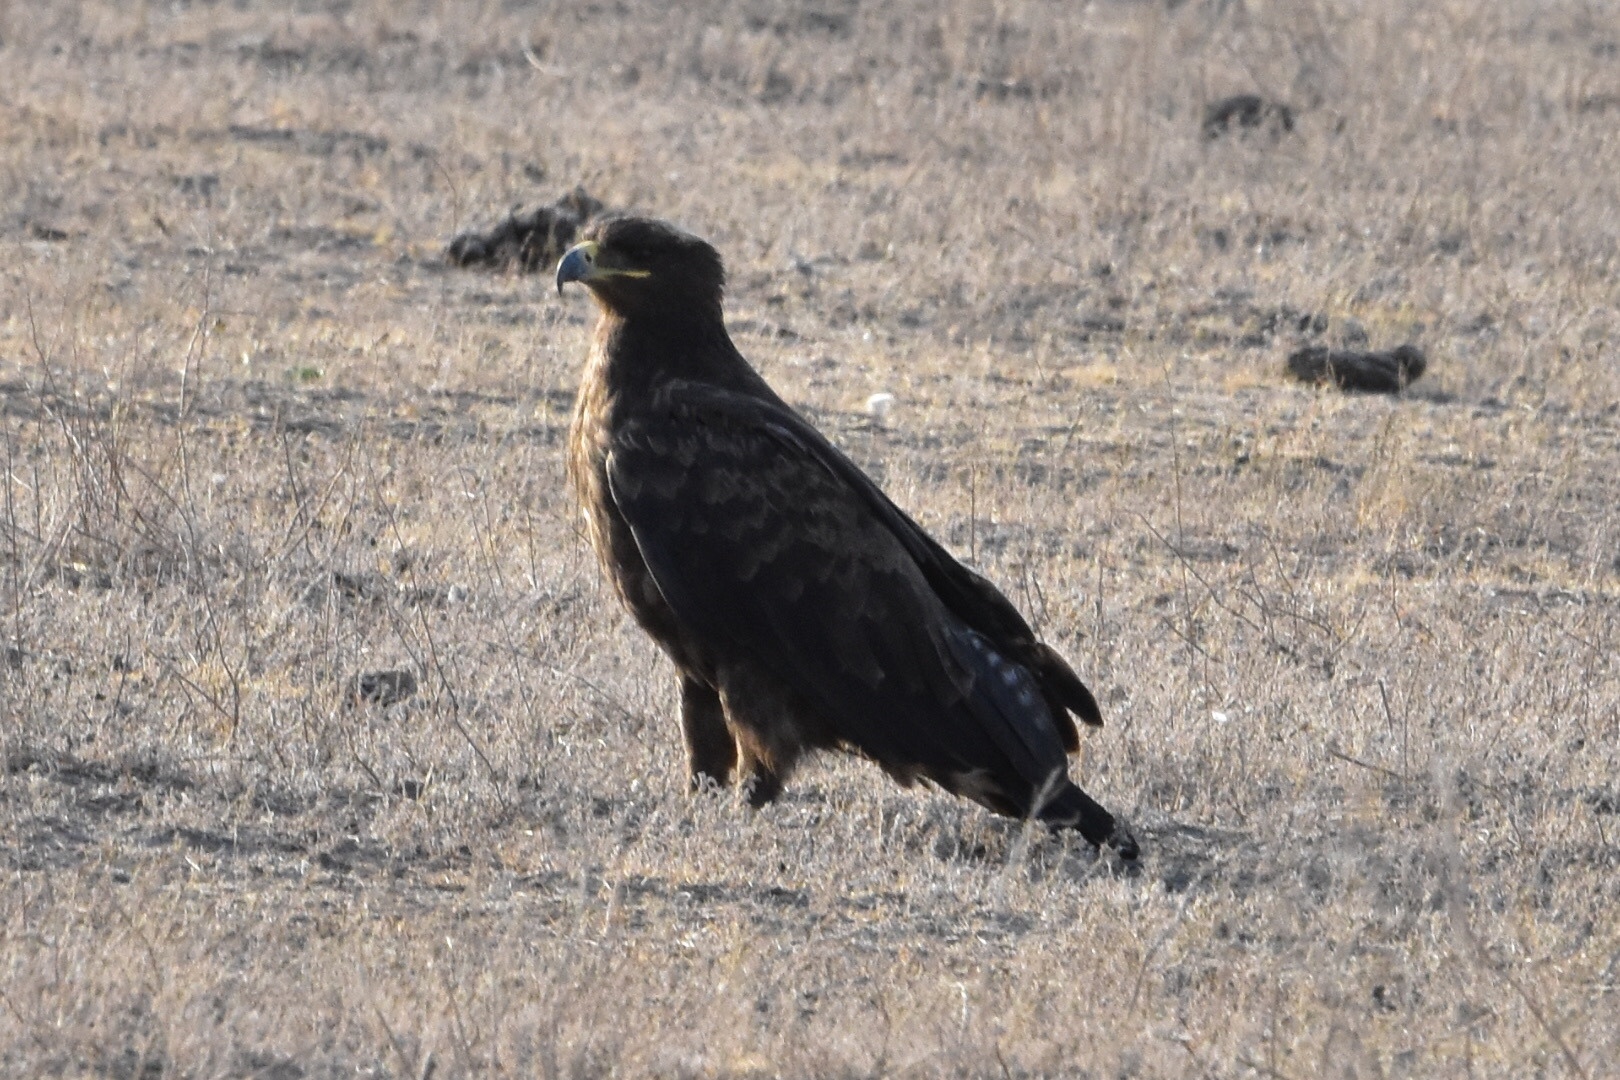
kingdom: Animalia
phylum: Chordata
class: Aves
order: Accipitriformes
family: Accipitridae
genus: Aquila
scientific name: Aquila nipalensis
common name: Steppe eagle
